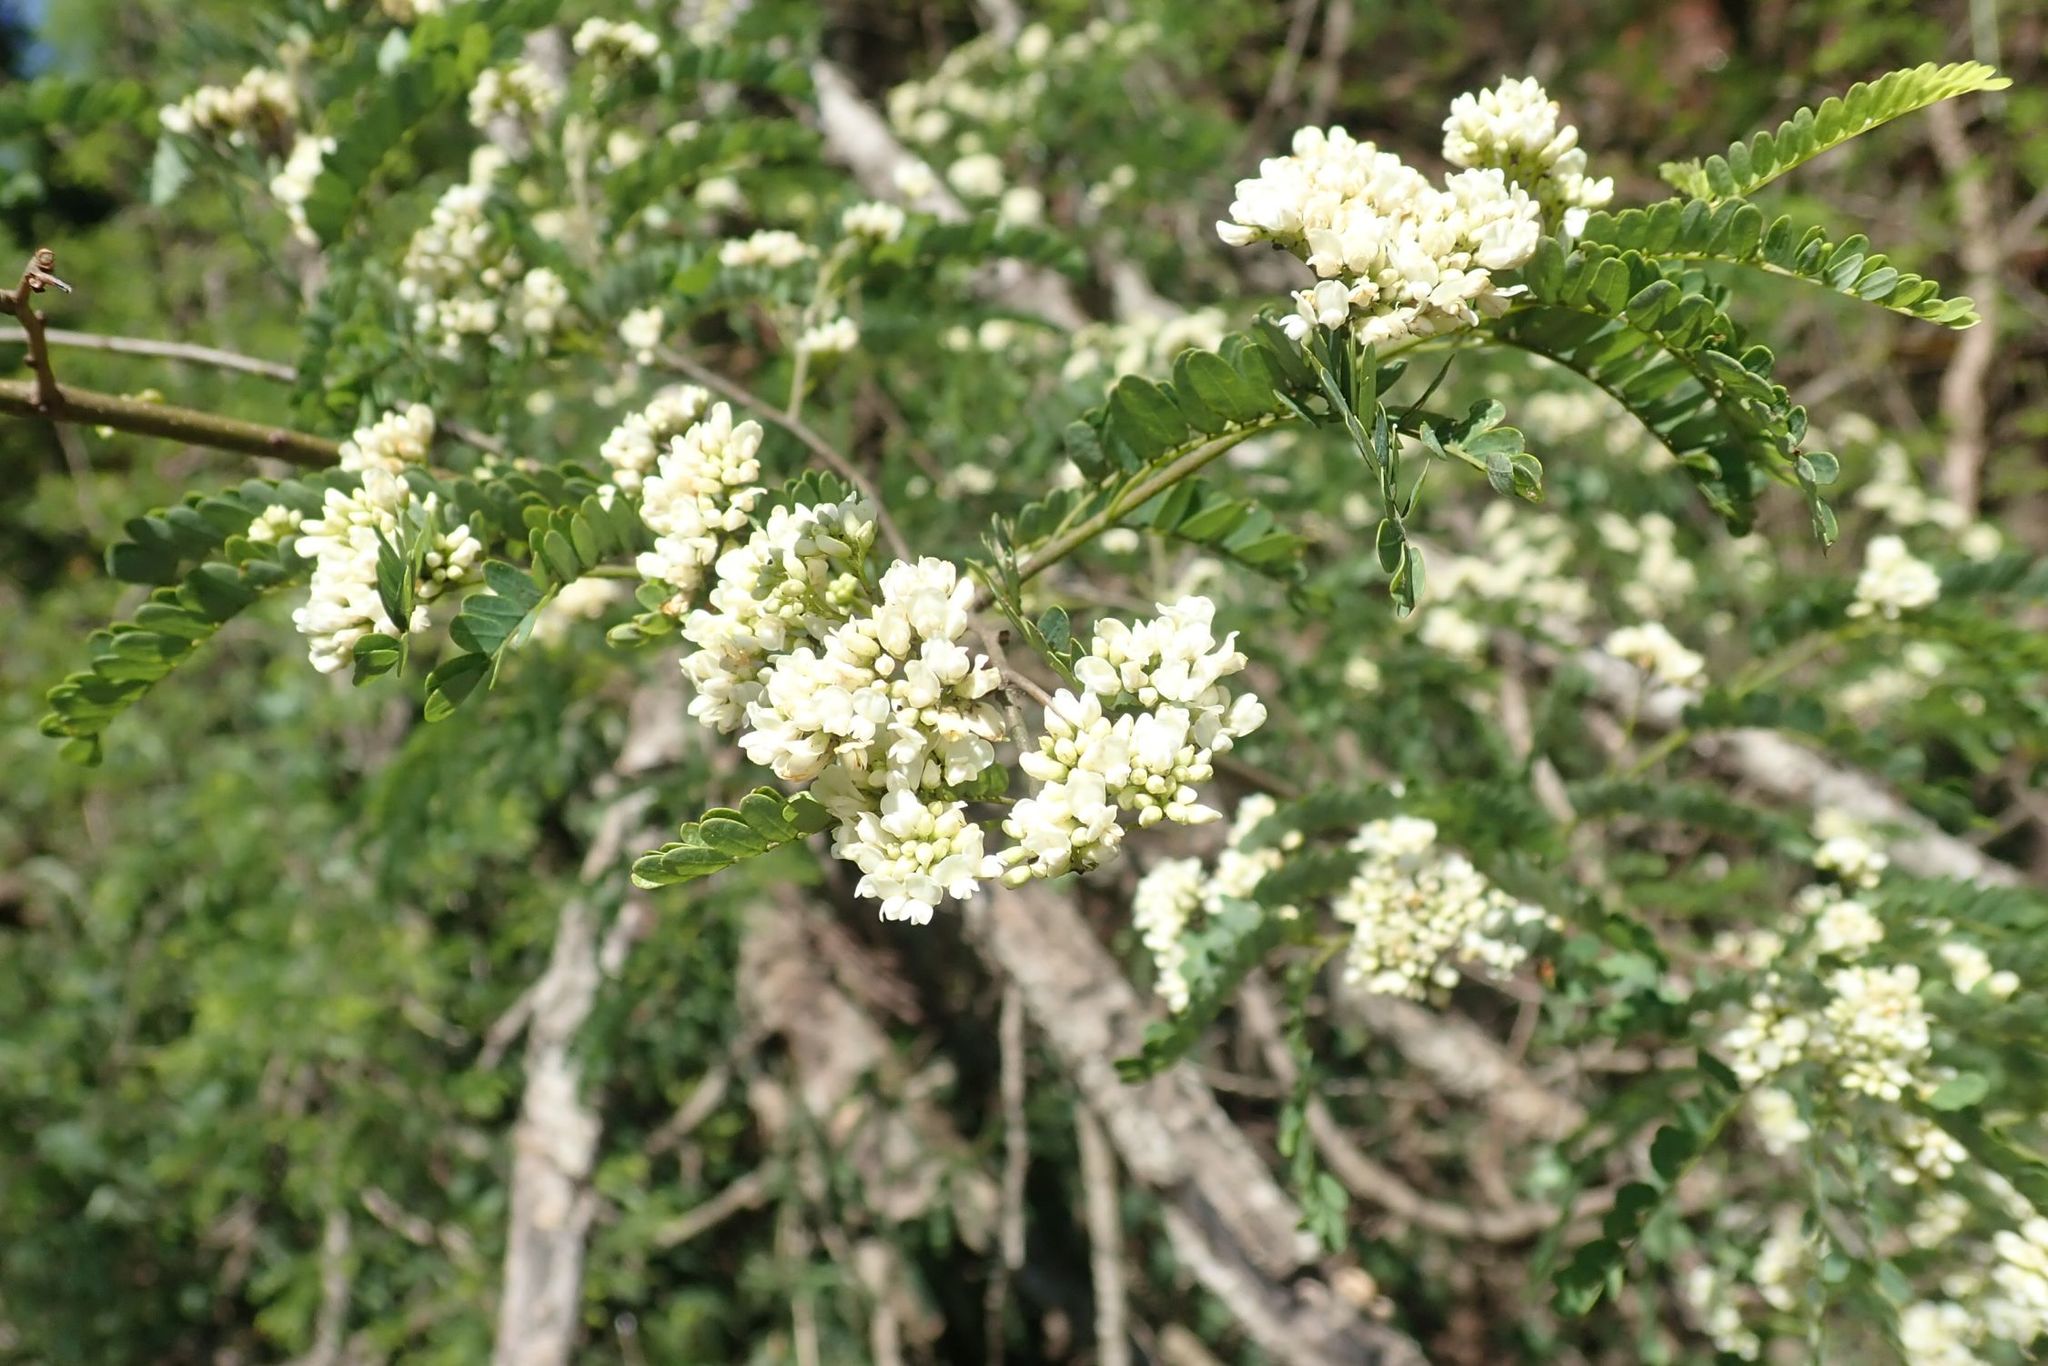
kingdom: Plantae
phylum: Tracheophyta
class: Magnoliopsida
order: Fabales
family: Fabaceae
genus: Dalbergia
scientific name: Dalbergia armata
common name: Hluhluwe climber
